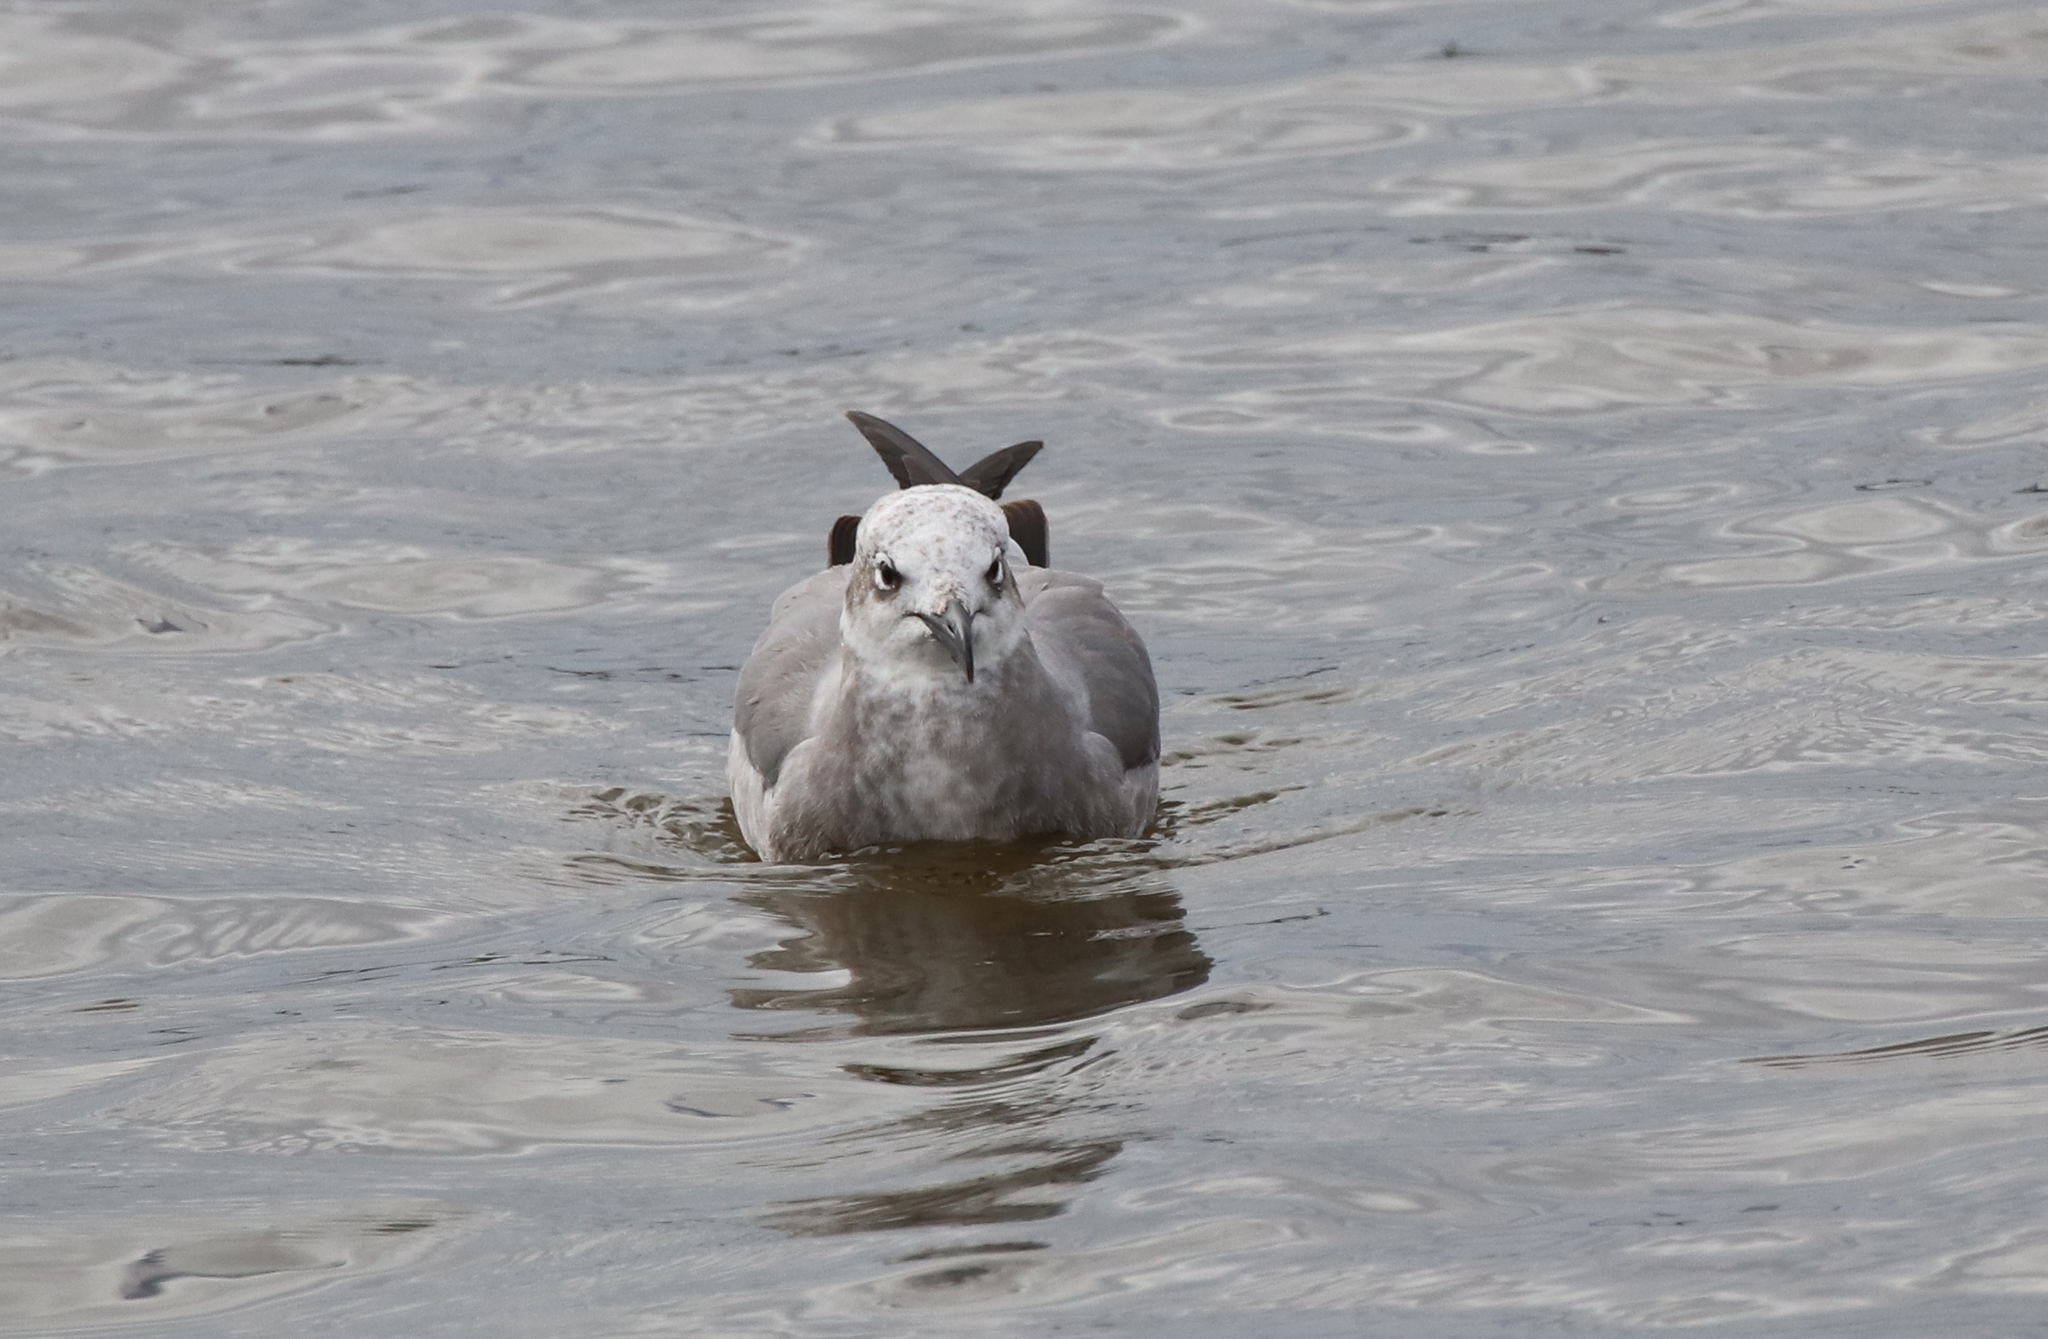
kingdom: Animalia
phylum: Chordata
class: Aves
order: Charadriiformes
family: Laridae
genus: Leucophaeus
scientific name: Leucophaeus atricilla
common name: Laughing gull
